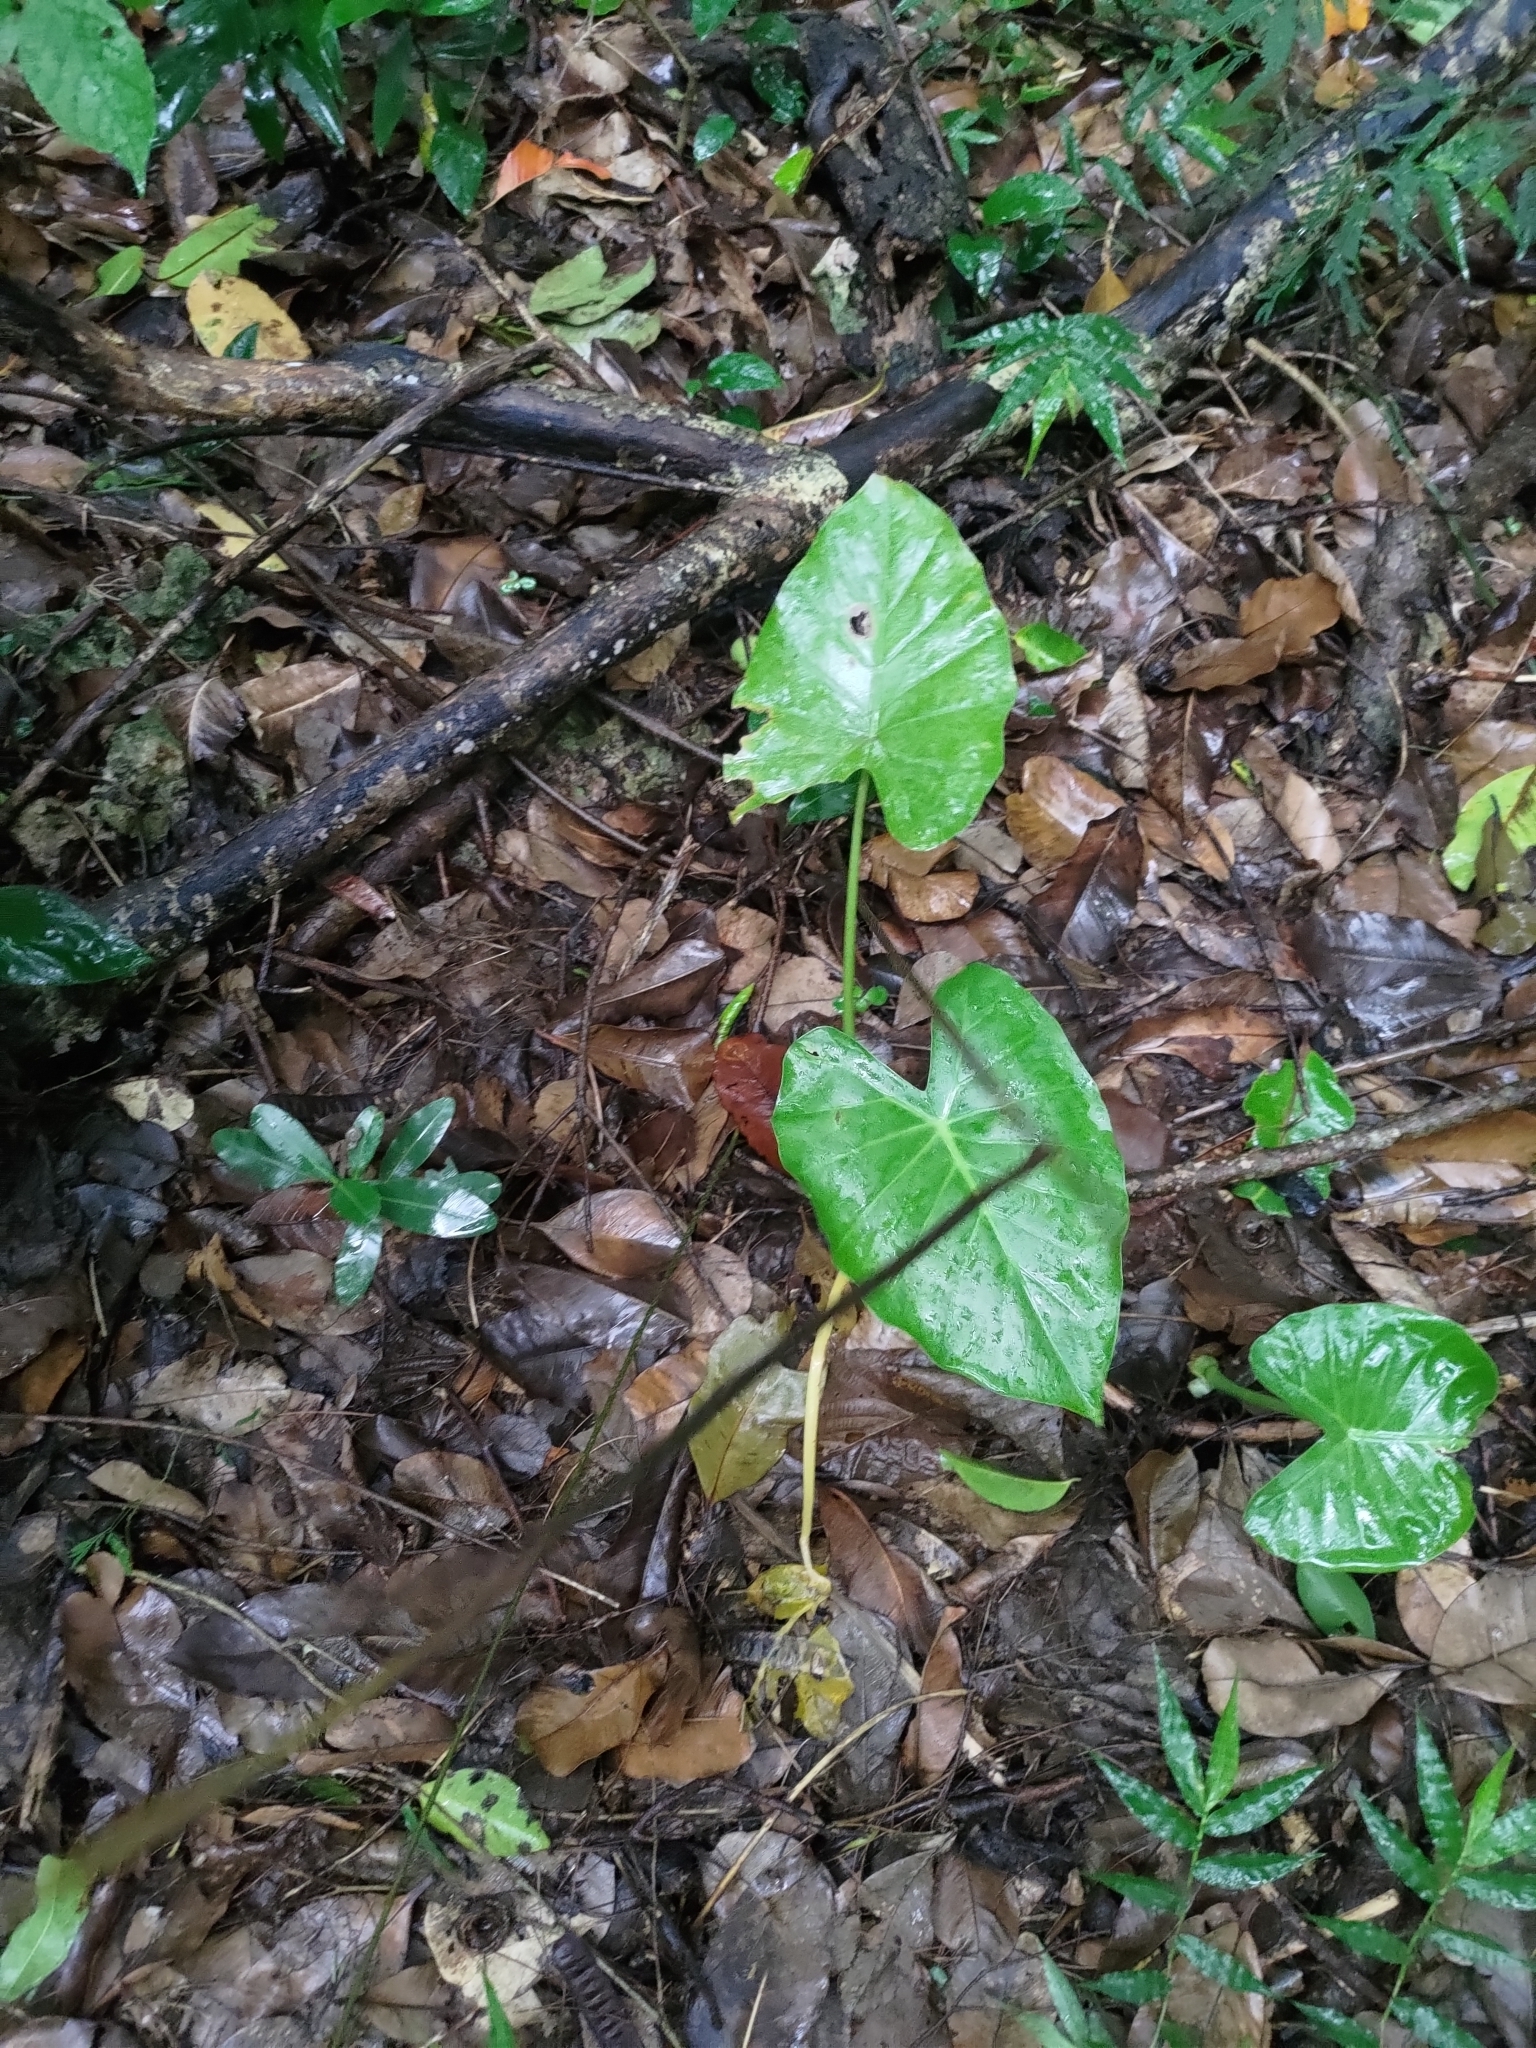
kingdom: Plantae
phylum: Tracheophyta
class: Liliopsida
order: Alismatales
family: Araceae
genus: Alocasia
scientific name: Alocasia odora
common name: Asian taro
